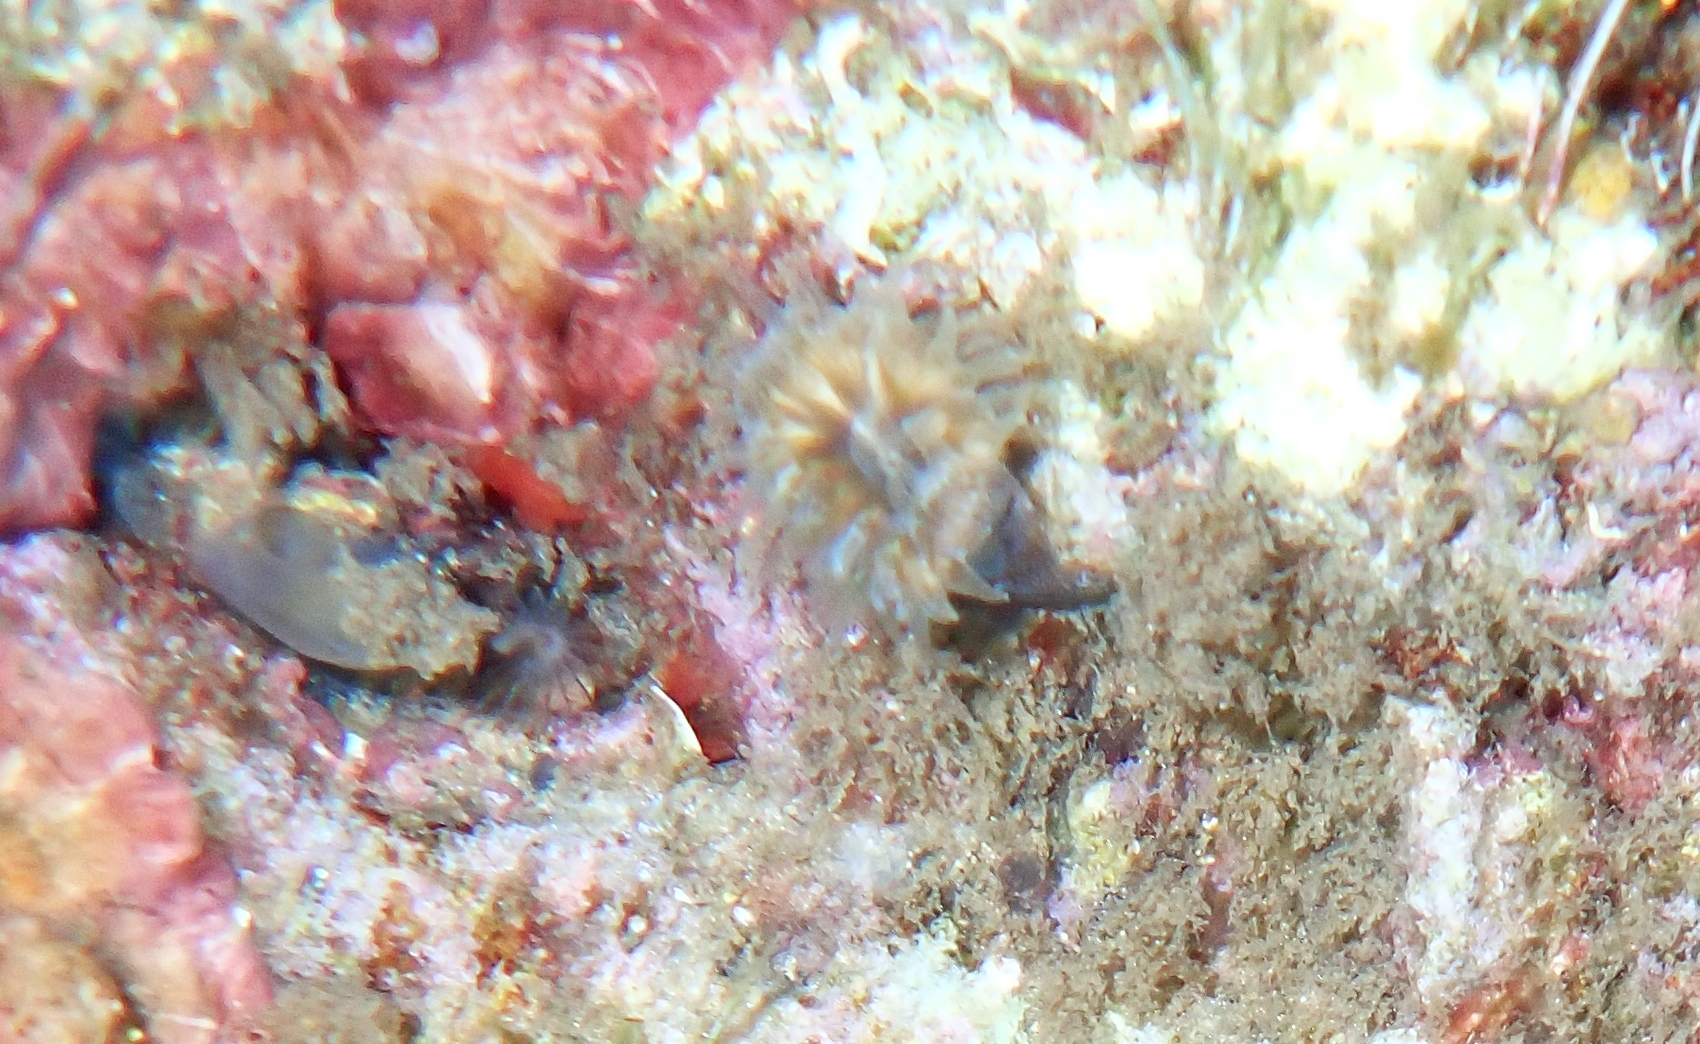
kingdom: Animalia
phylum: Cnidaria
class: Anthozoa
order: Scleractinia
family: Dendrophylliidae
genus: Balanophyllia
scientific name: Balanophyllia europaea
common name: Scarlet coral
